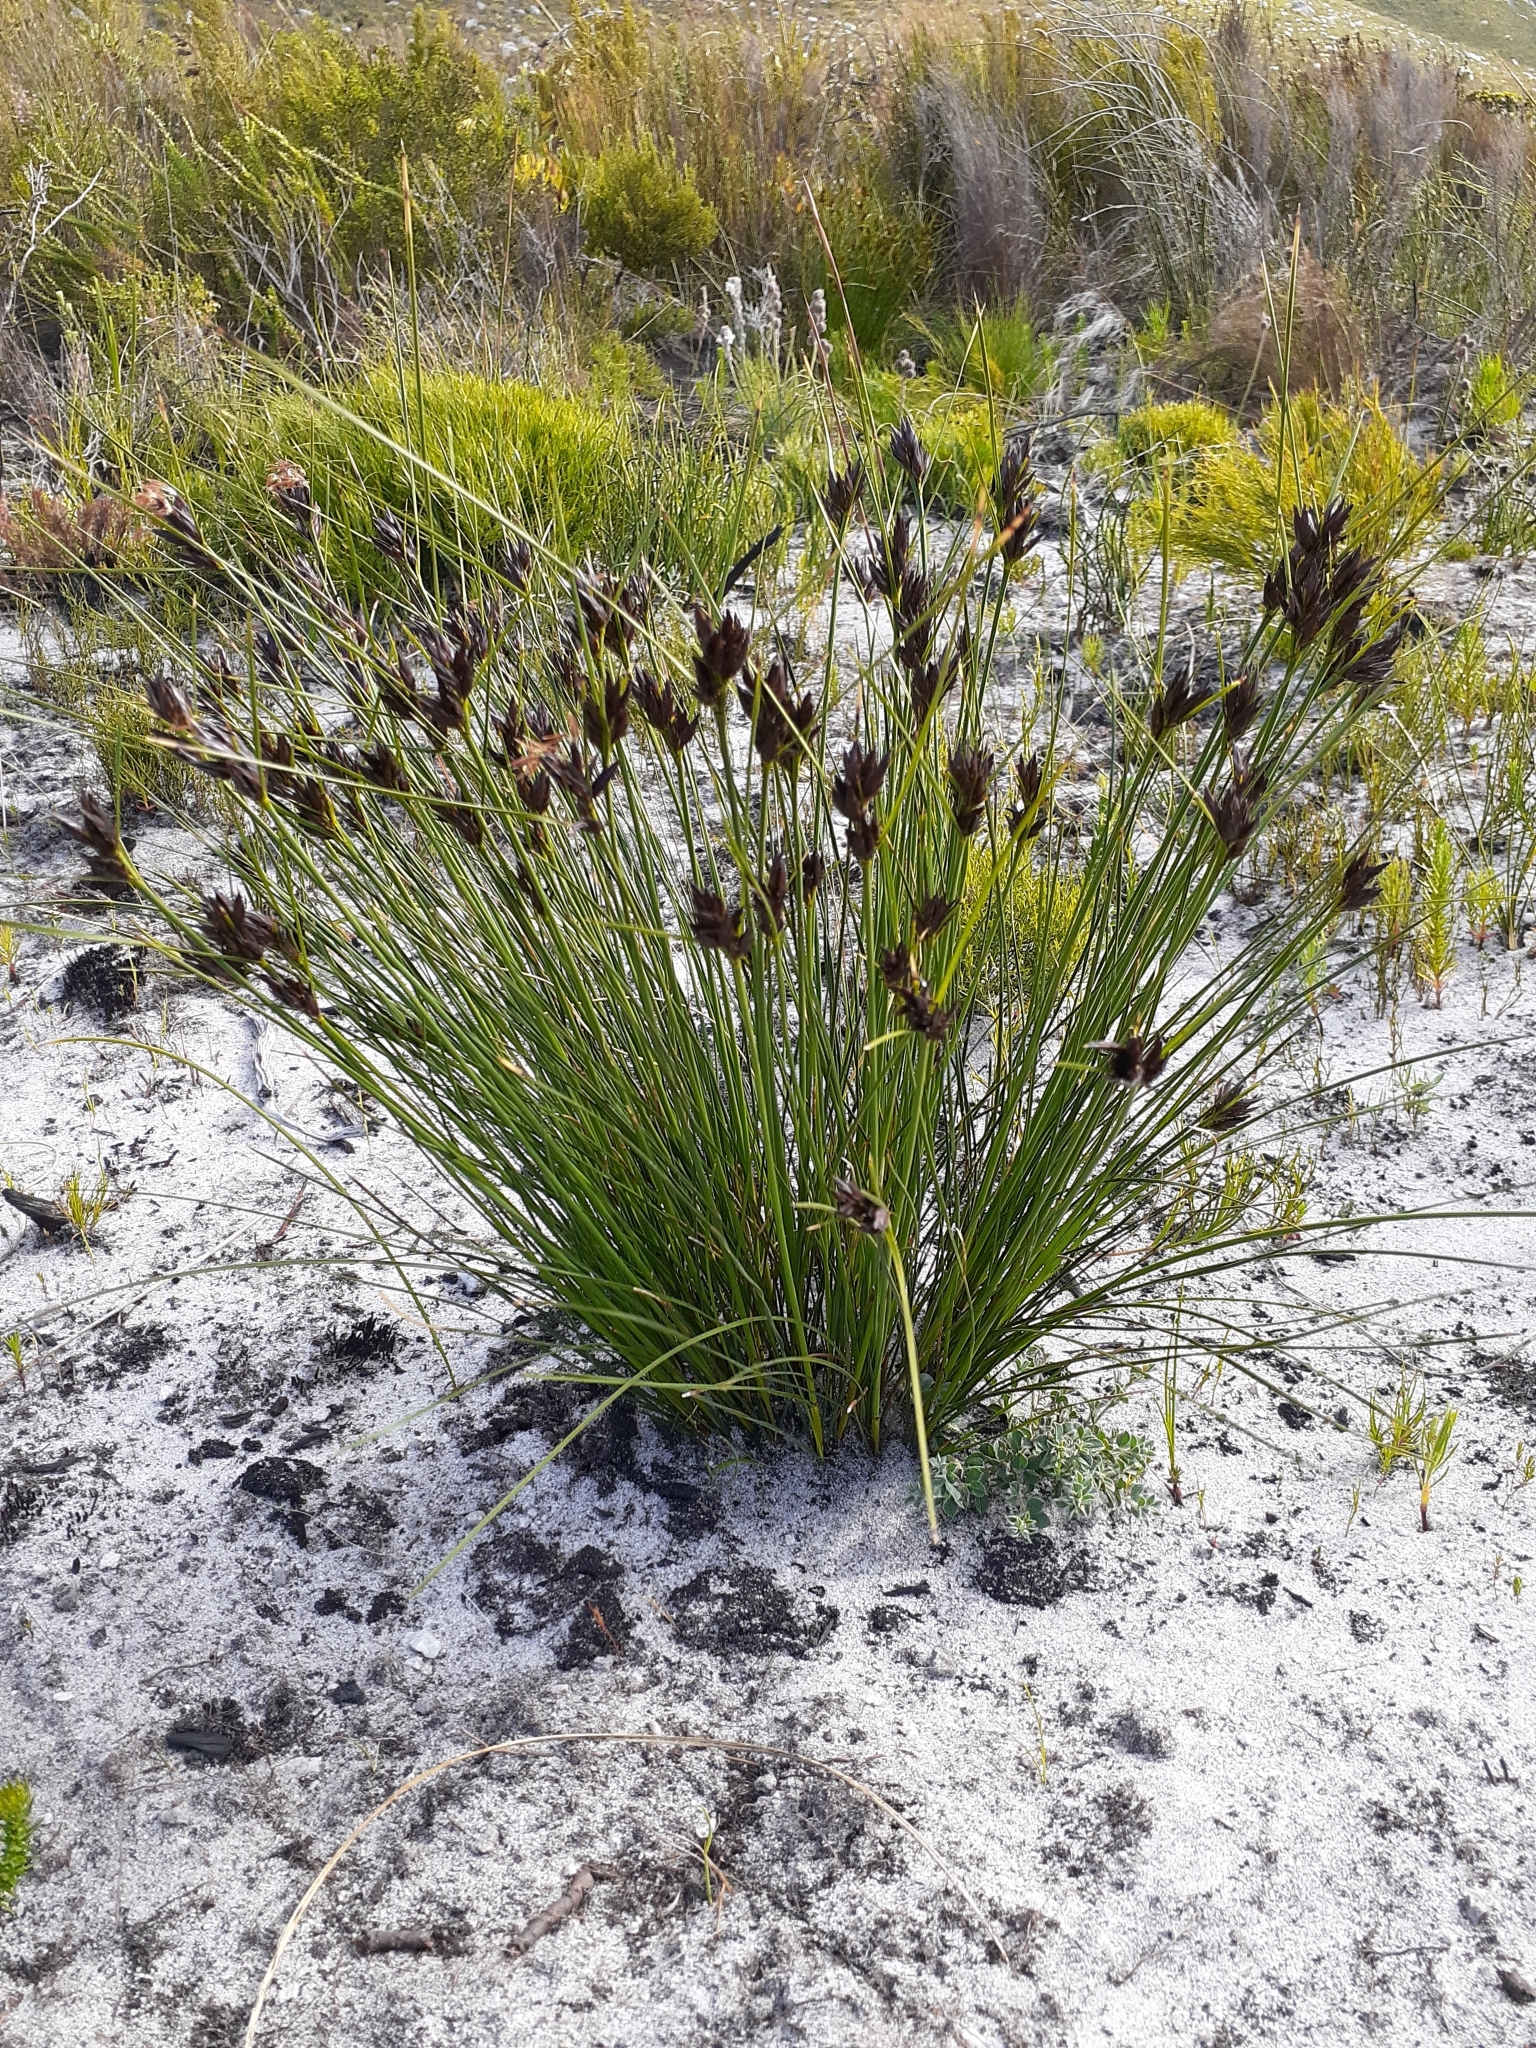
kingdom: Plantae
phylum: Tracheophyta
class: Liliopsida
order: Poales
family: Cyperaceae
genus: Schoenus
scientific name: Schoenus compar
